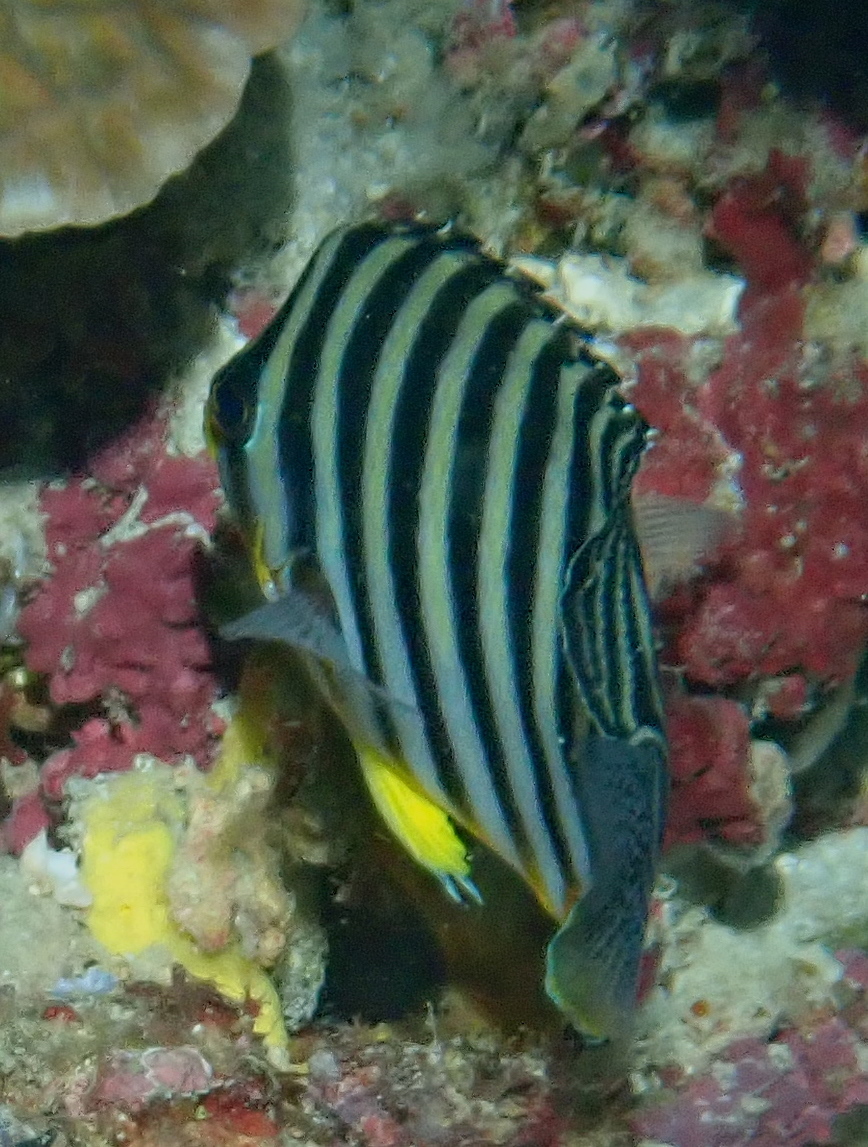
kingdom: Animalia
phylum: Chordata
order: Perciformes
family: Pomacanthidae
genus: Paracentropyge
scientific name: Paracentropyge multifasciata
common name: Barred angelfish
